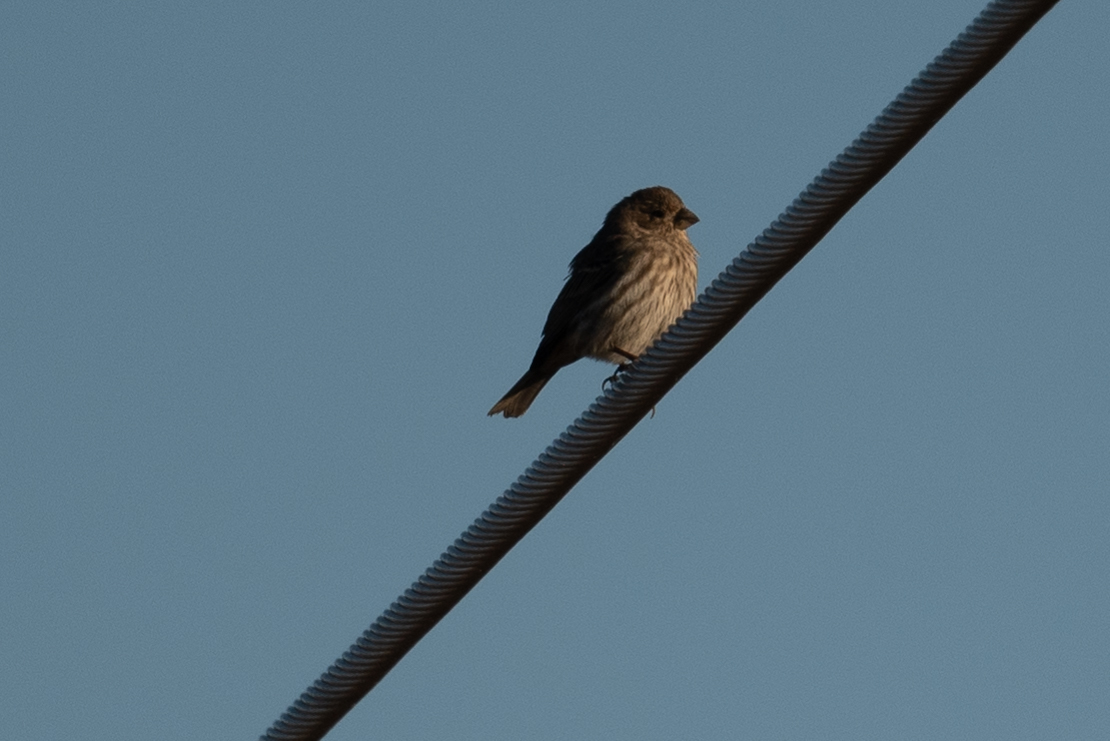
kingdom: Animalia
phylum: Chordata
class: Aves
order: Passeriformes
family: Fringillidae
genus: Haemorhous
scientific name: Haemorhous mexicanus
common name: House finch
